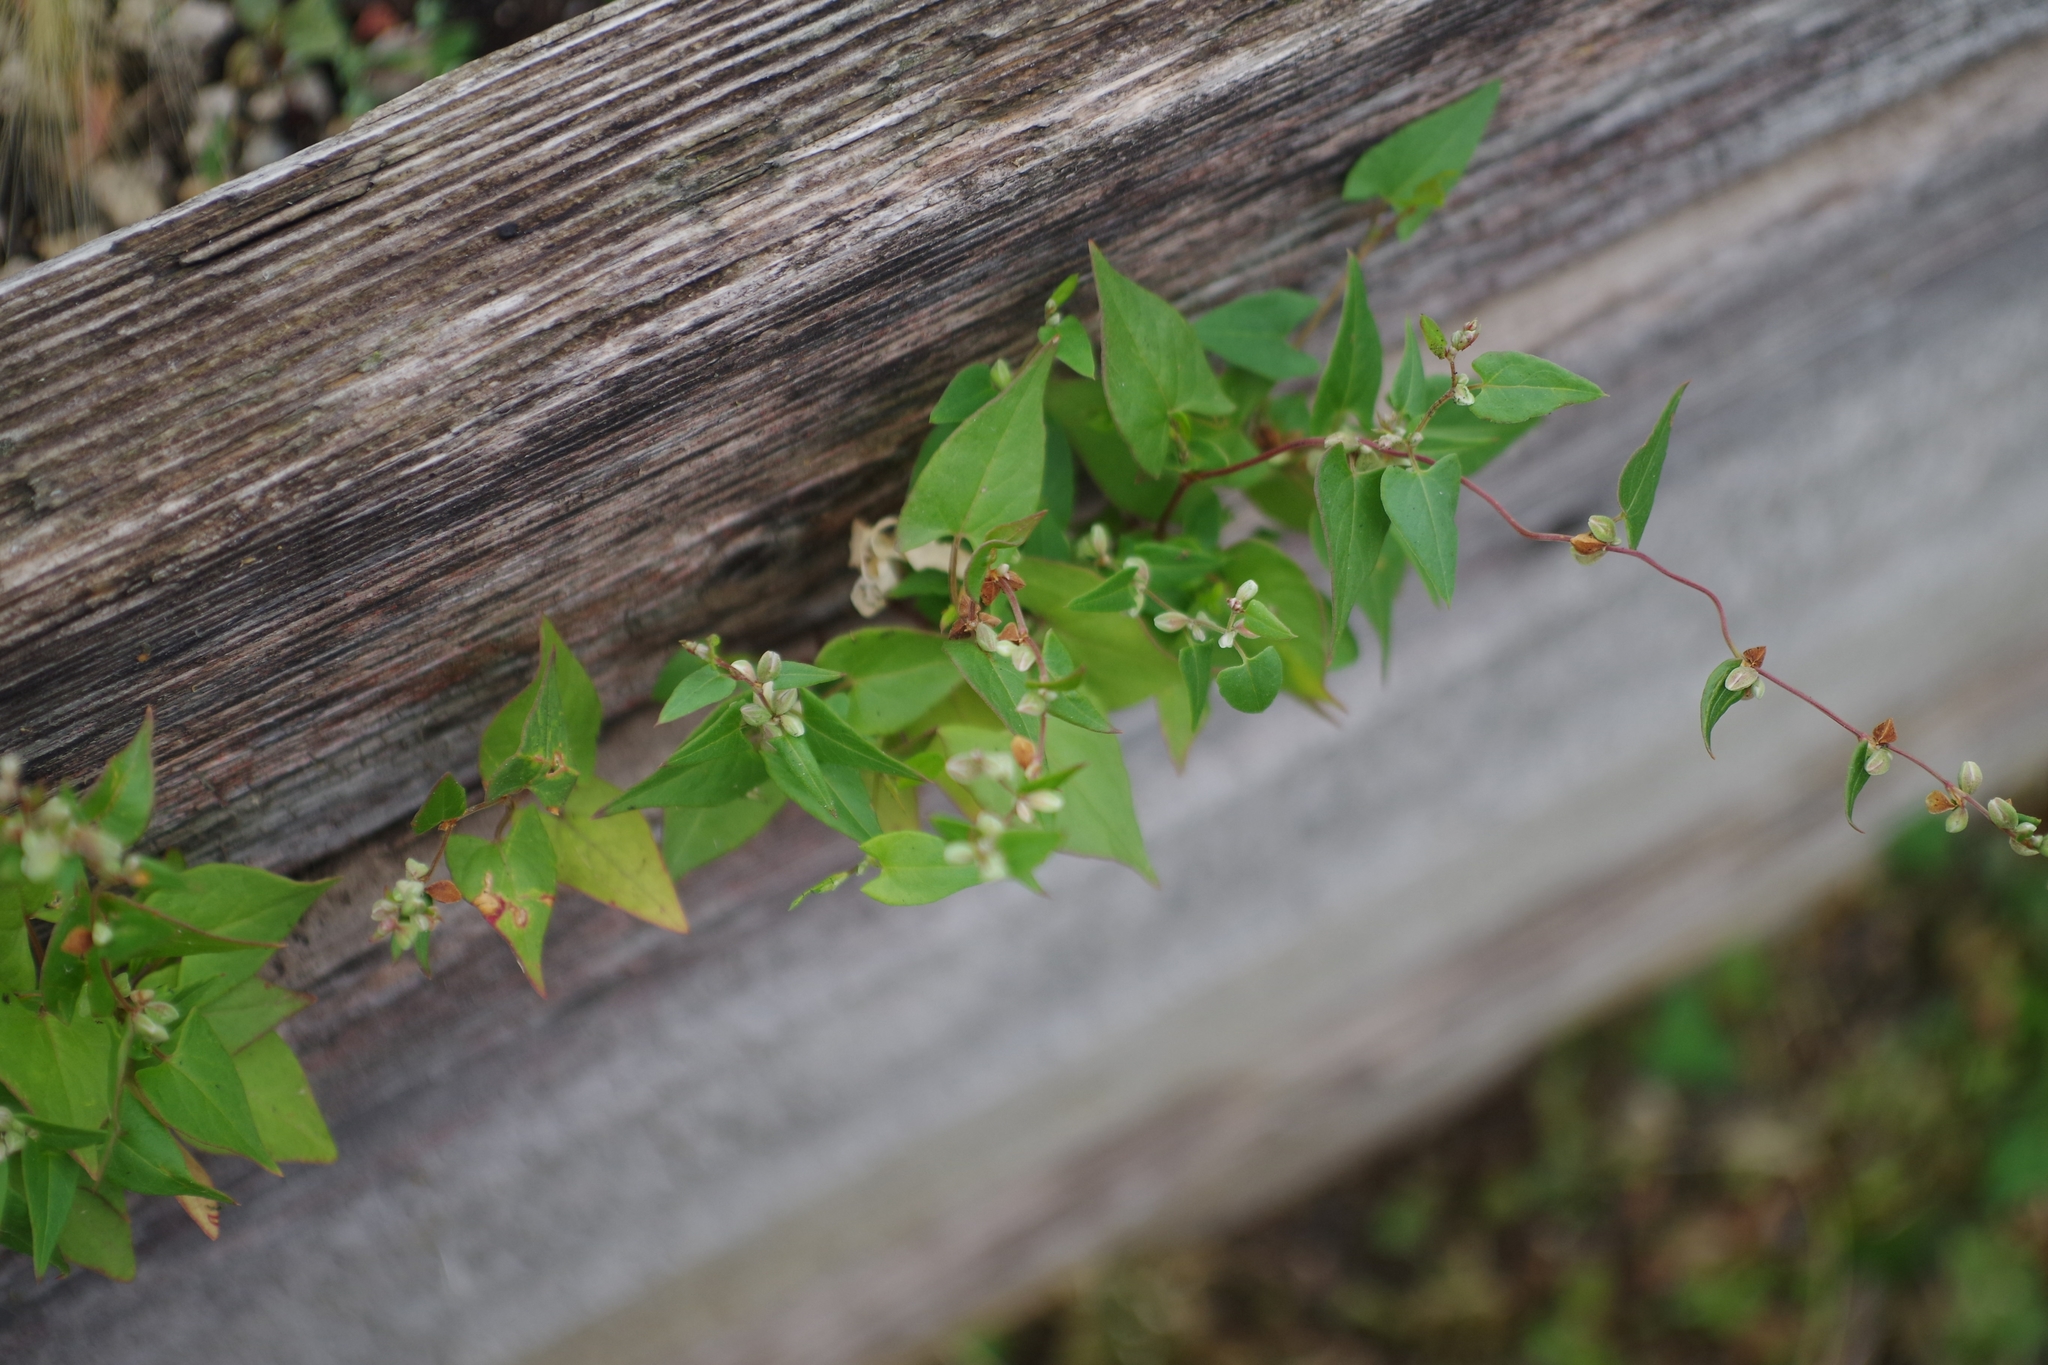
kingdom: Plantae
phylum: Tracheophyta
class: Magnoliopsida
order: Caryophyllales
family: Polygonaceae
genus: Fallopia
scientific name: Fallopia convolvulus
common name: Black bindweed
